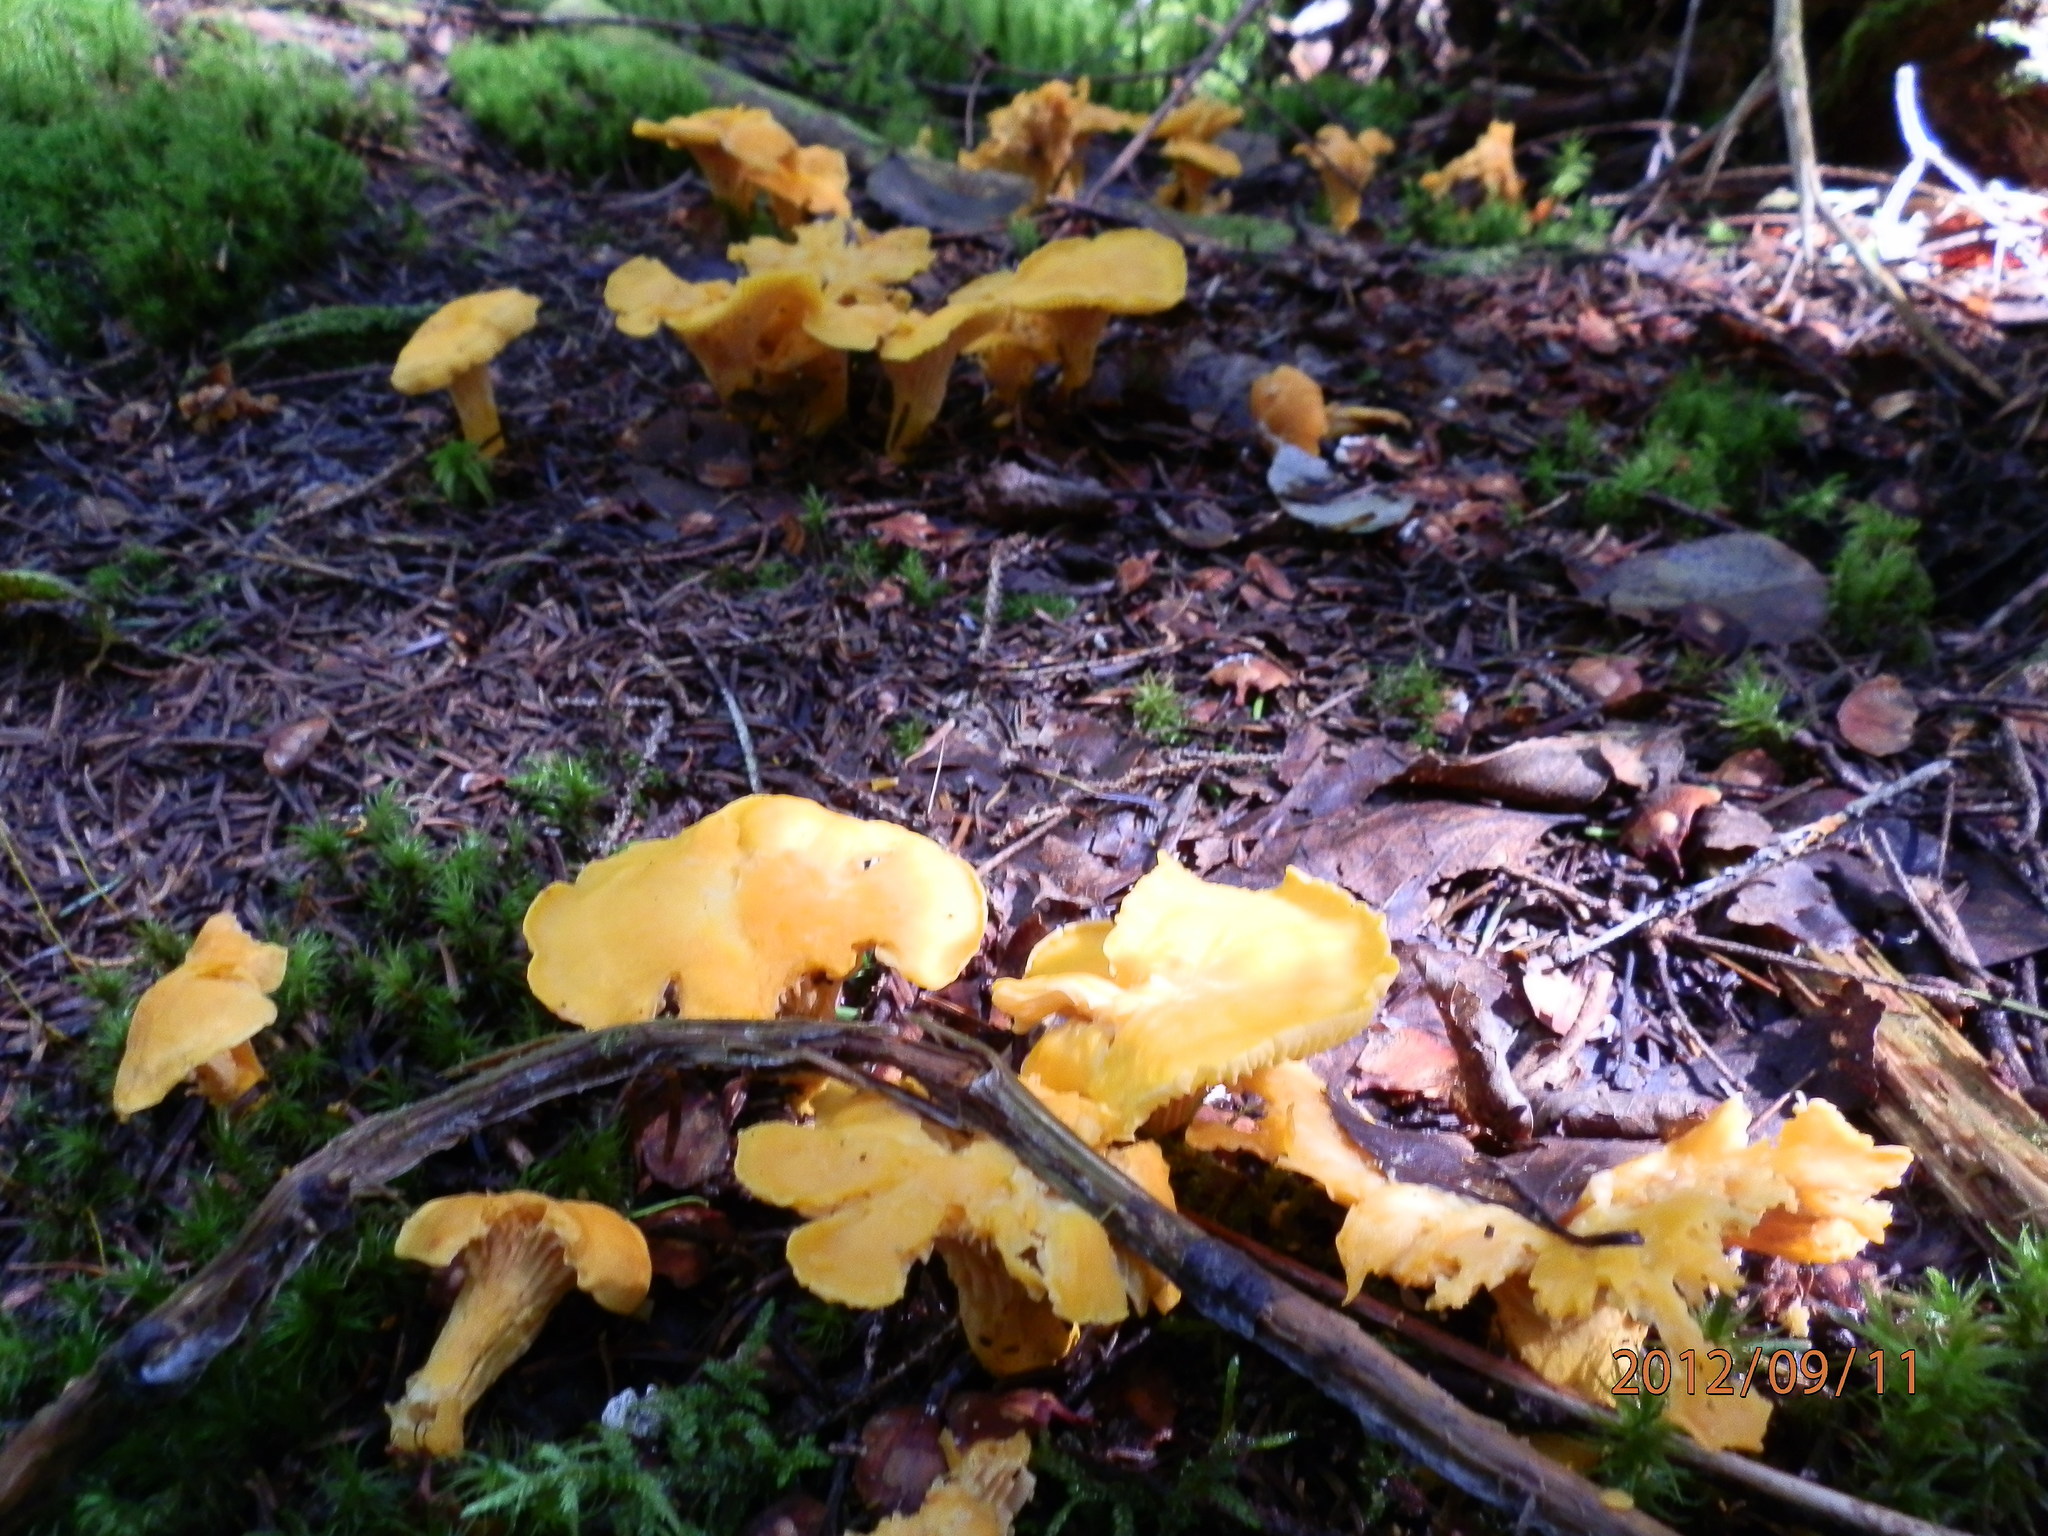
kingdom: Fungi
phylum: Basidiomycota
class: Agaricomycetes
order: Cantharellales
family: Hydnaceae
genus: Cantharellus
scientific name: Cantharellus enelensis
